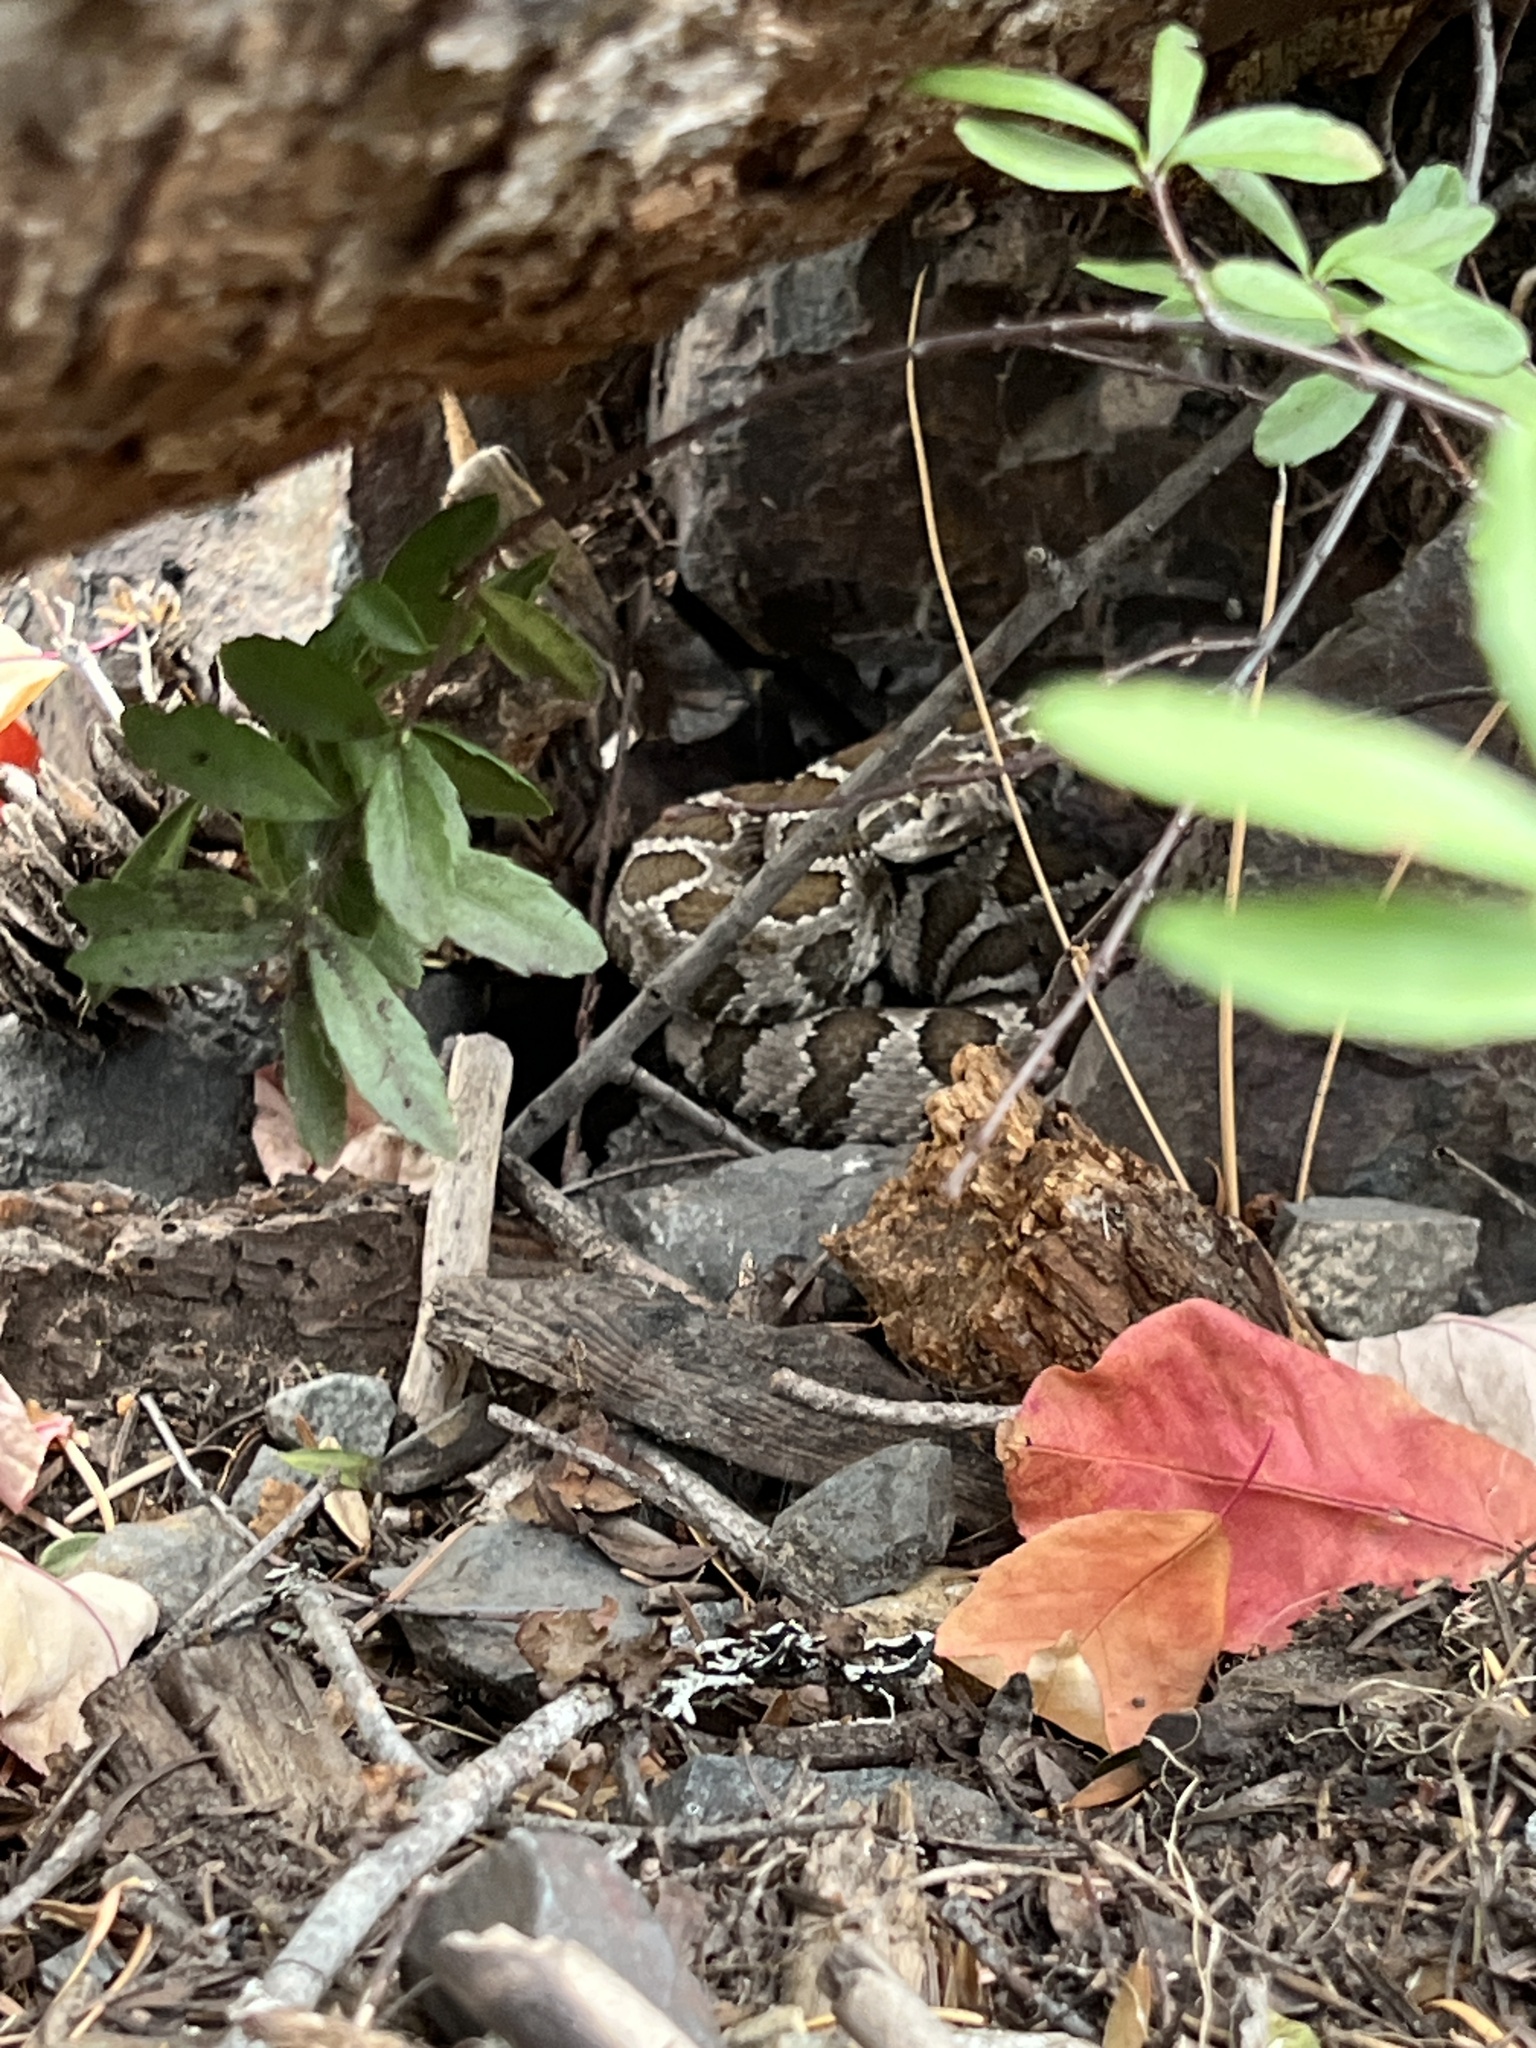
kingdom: Animalia
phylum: Chordata
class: Squamata
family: Viperidae
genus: Crotalus
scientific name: Crotalus oreganus
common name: Abyssus
